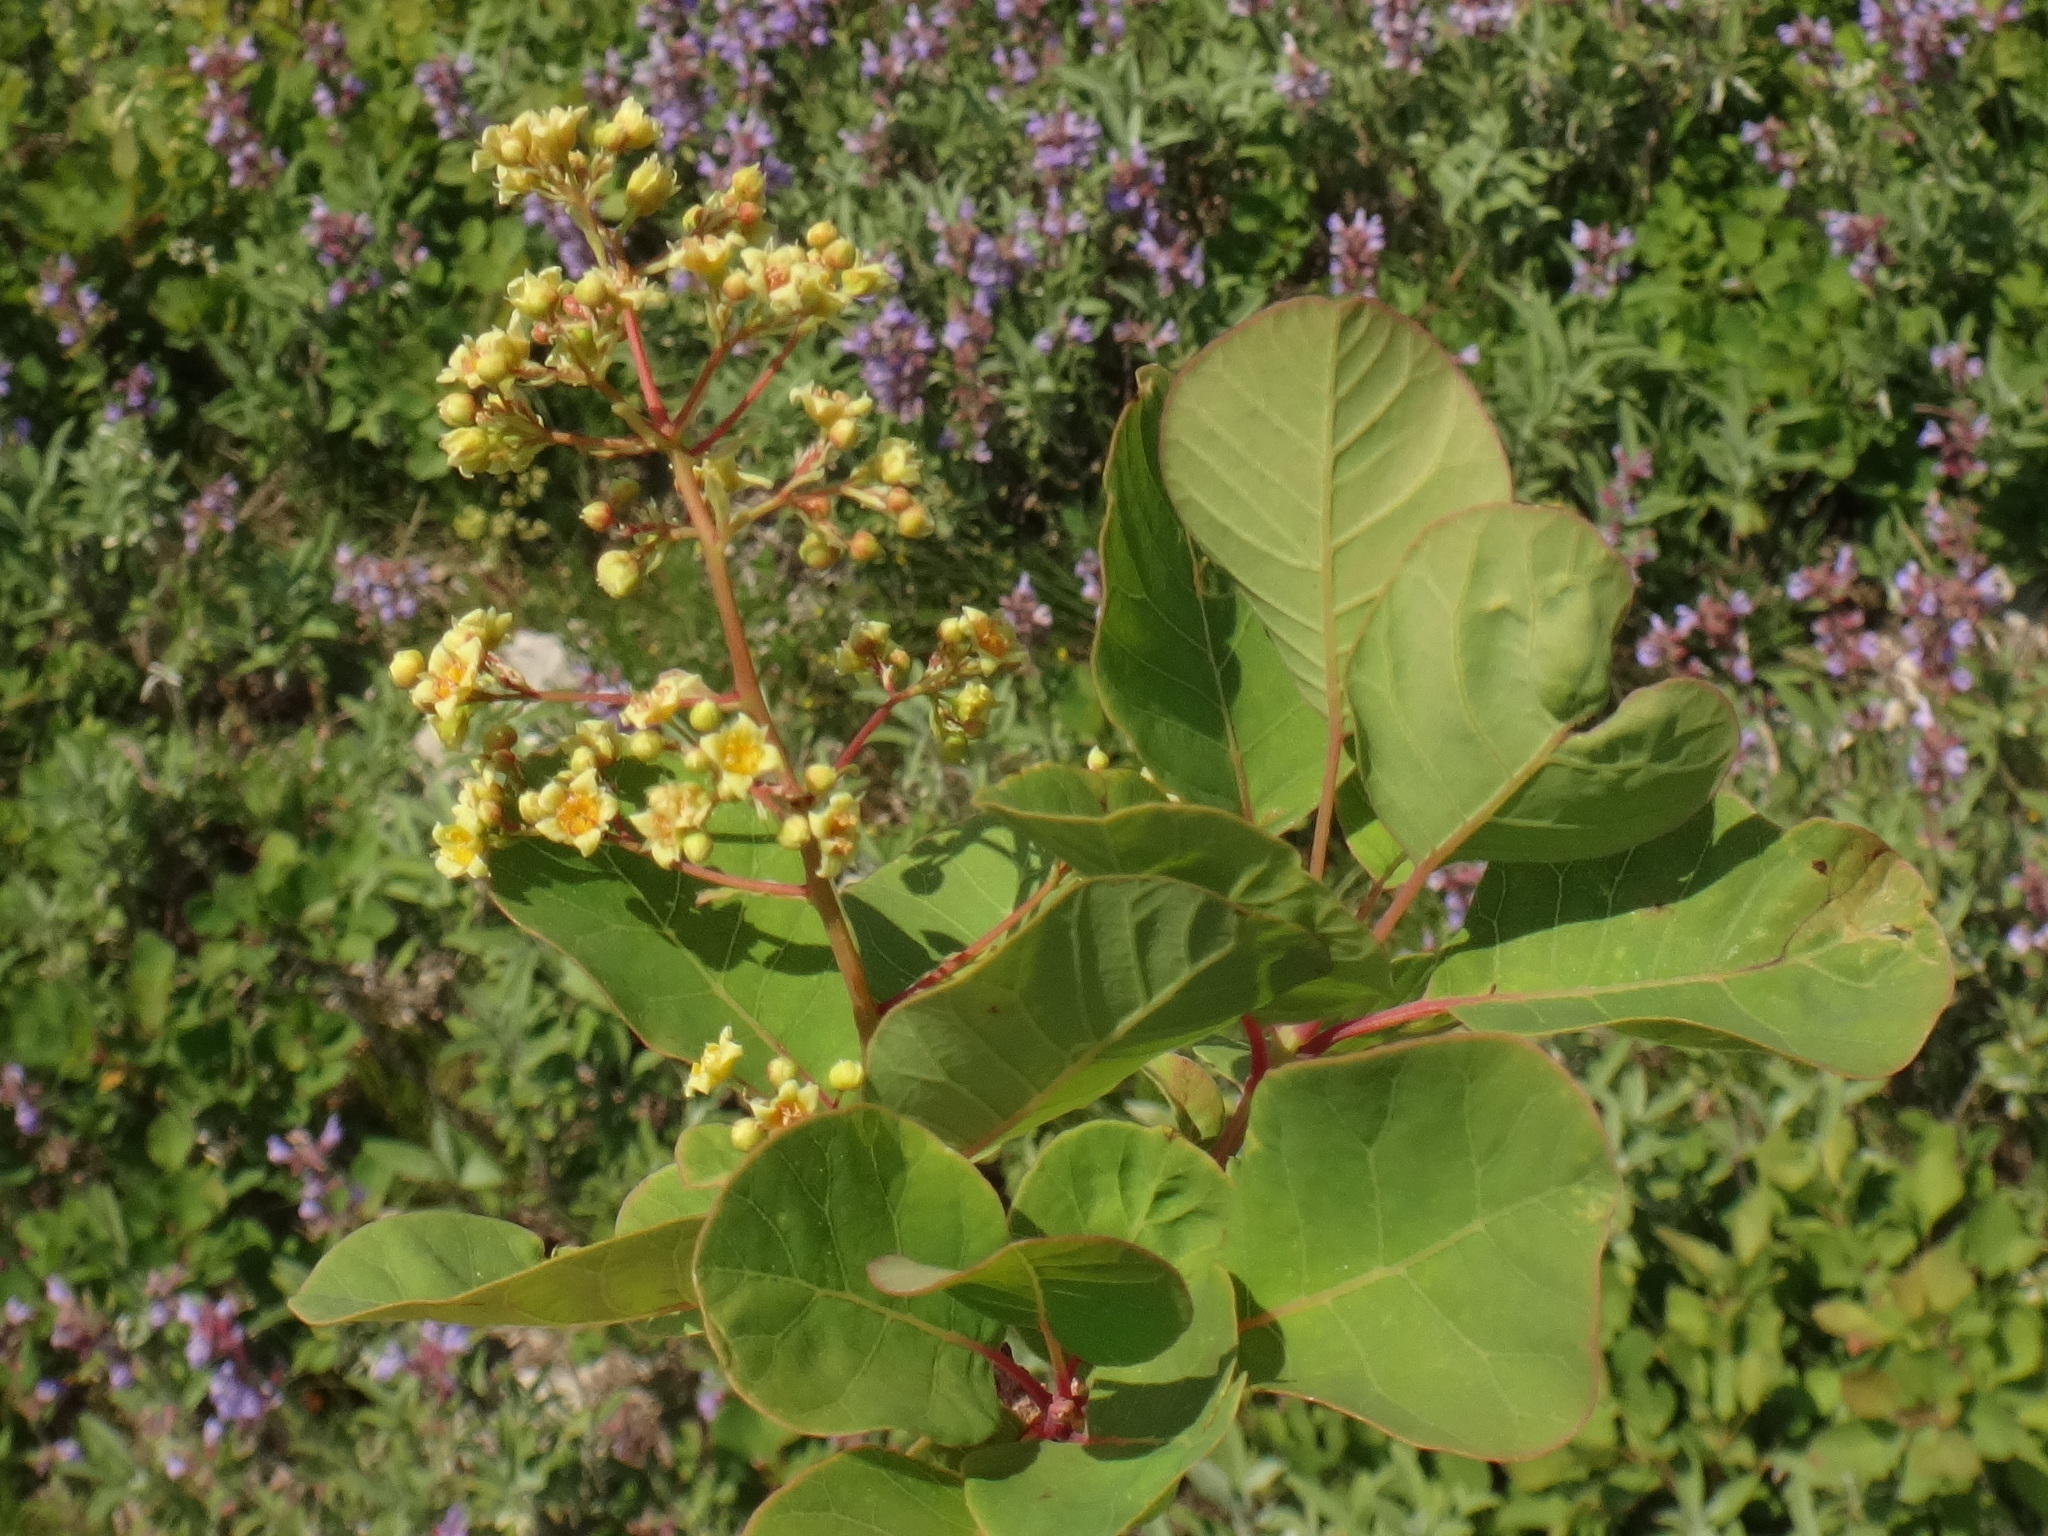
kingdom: Plantae
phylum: Tracheophyta
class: Magnoliopsida
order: Sapindales
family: Anacardiaceae
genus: Cotinus
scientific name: Cotinus coggygria
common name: Smoke-tree
